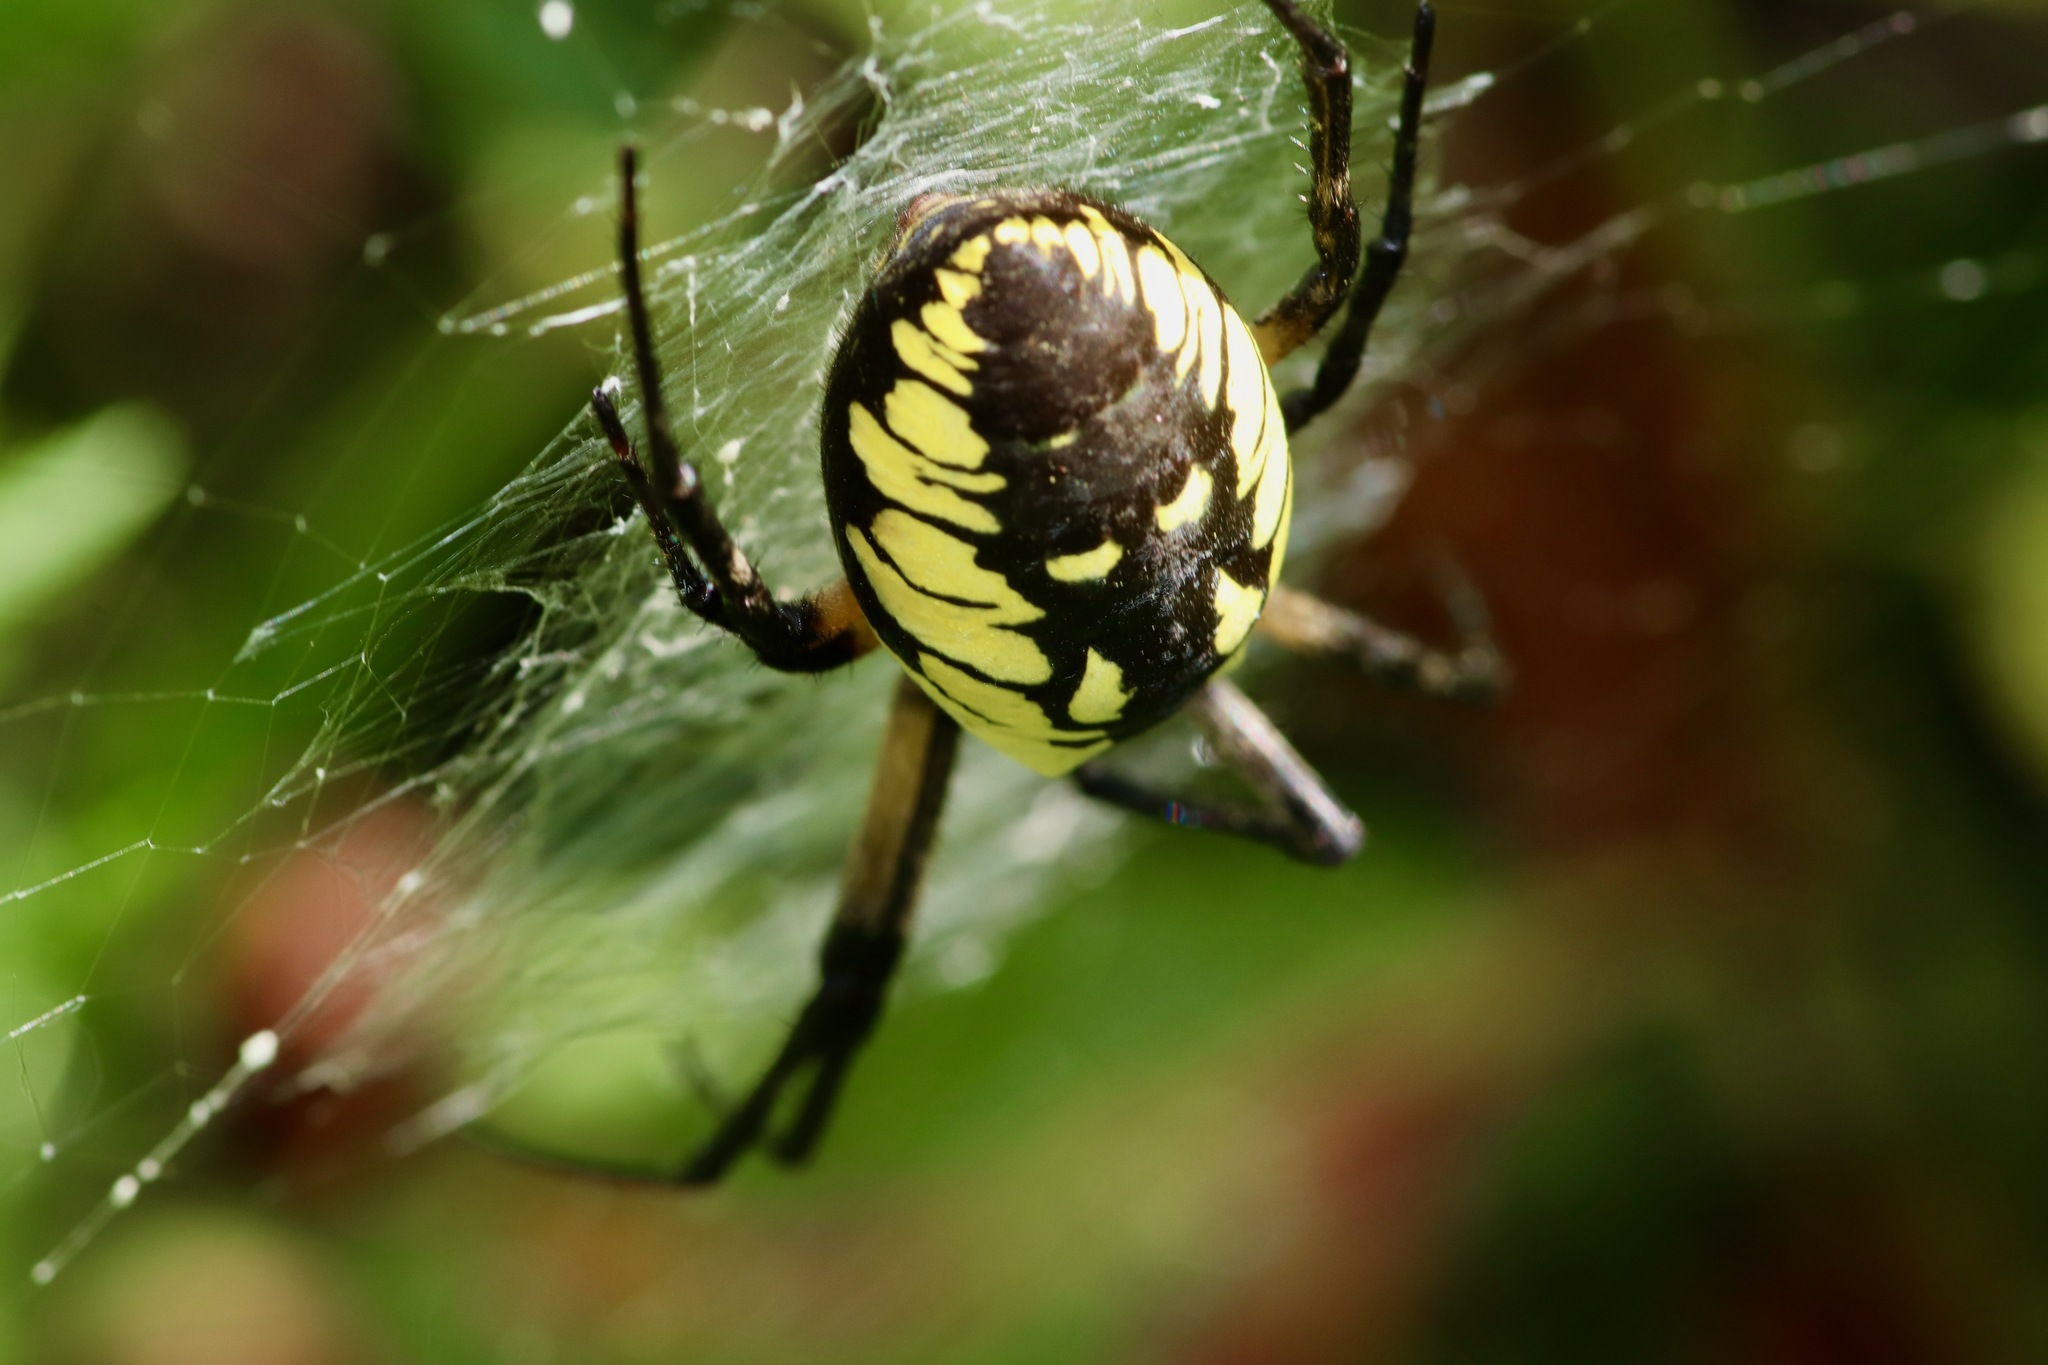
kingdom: Animalia
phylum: Arthropoda
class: Arachnida
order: Araneae
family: Araneidae
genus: Argiope
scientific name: Argiope aurantia
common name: Orb weavers
